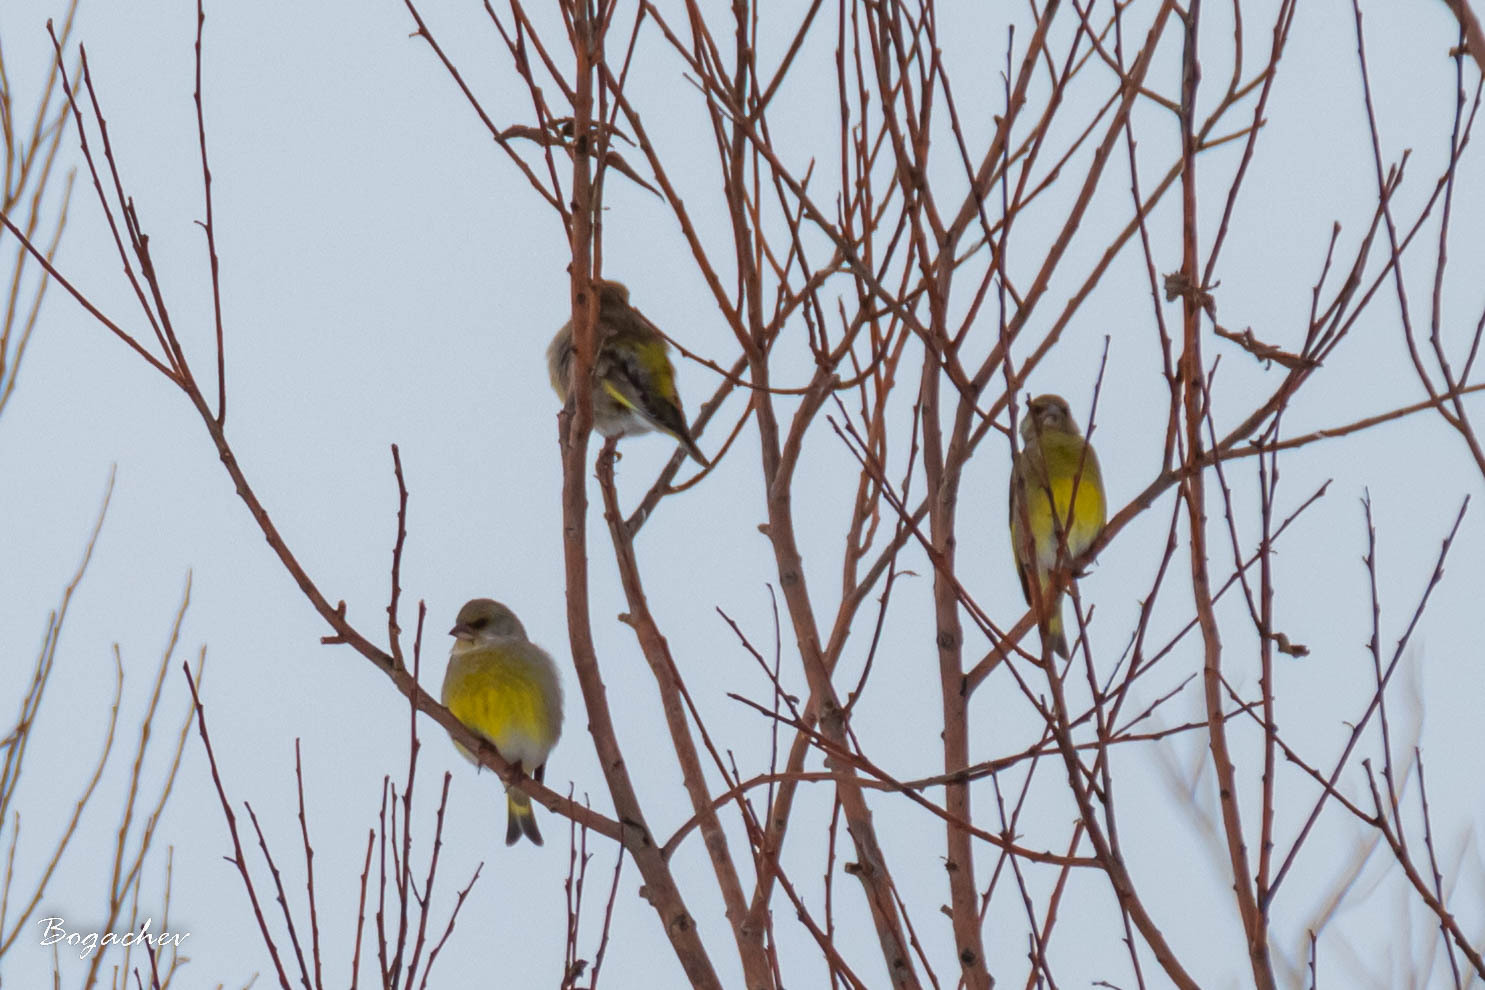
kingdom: Plantae
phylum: Tracheophyta
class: Liliopsida
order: Poales
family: Poaceae
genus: Chloris
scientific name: Chloris chloris
